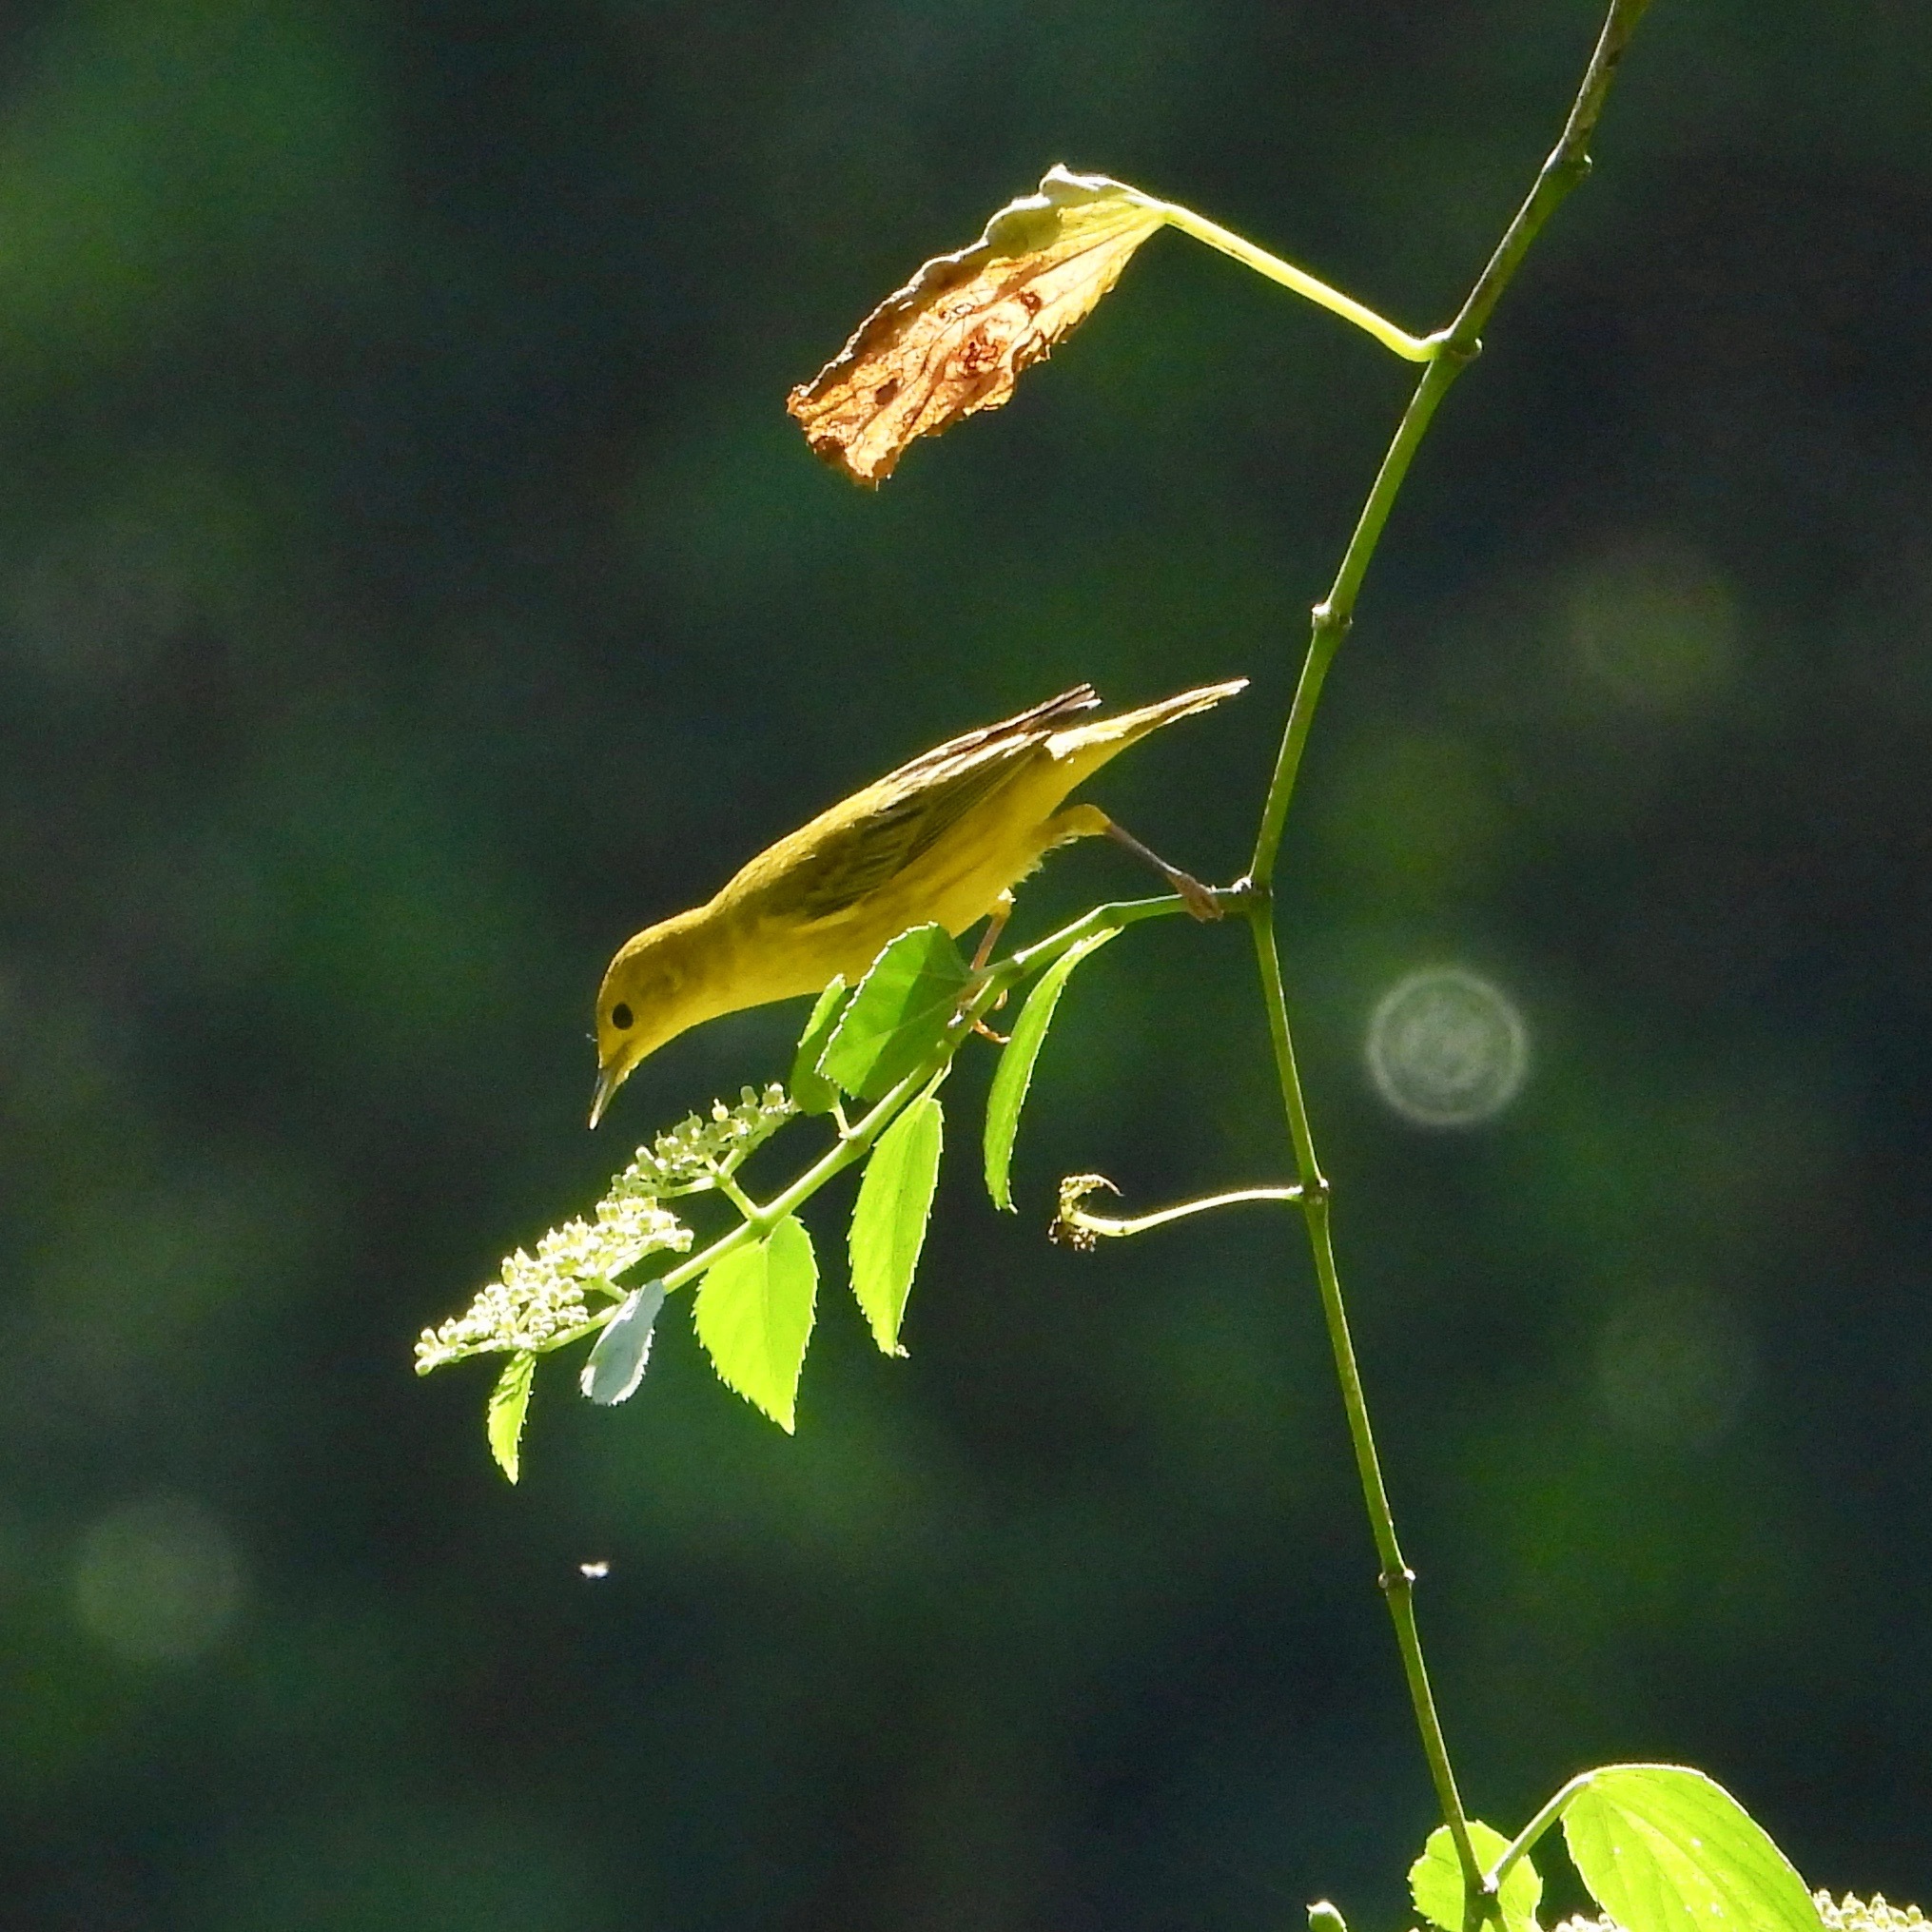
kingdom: Animalia
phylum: Chordata
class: Aves
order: Passeriformes
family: Parulidae
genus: Setophaga
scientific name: Setophaga petechia
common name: Yellow warbler
